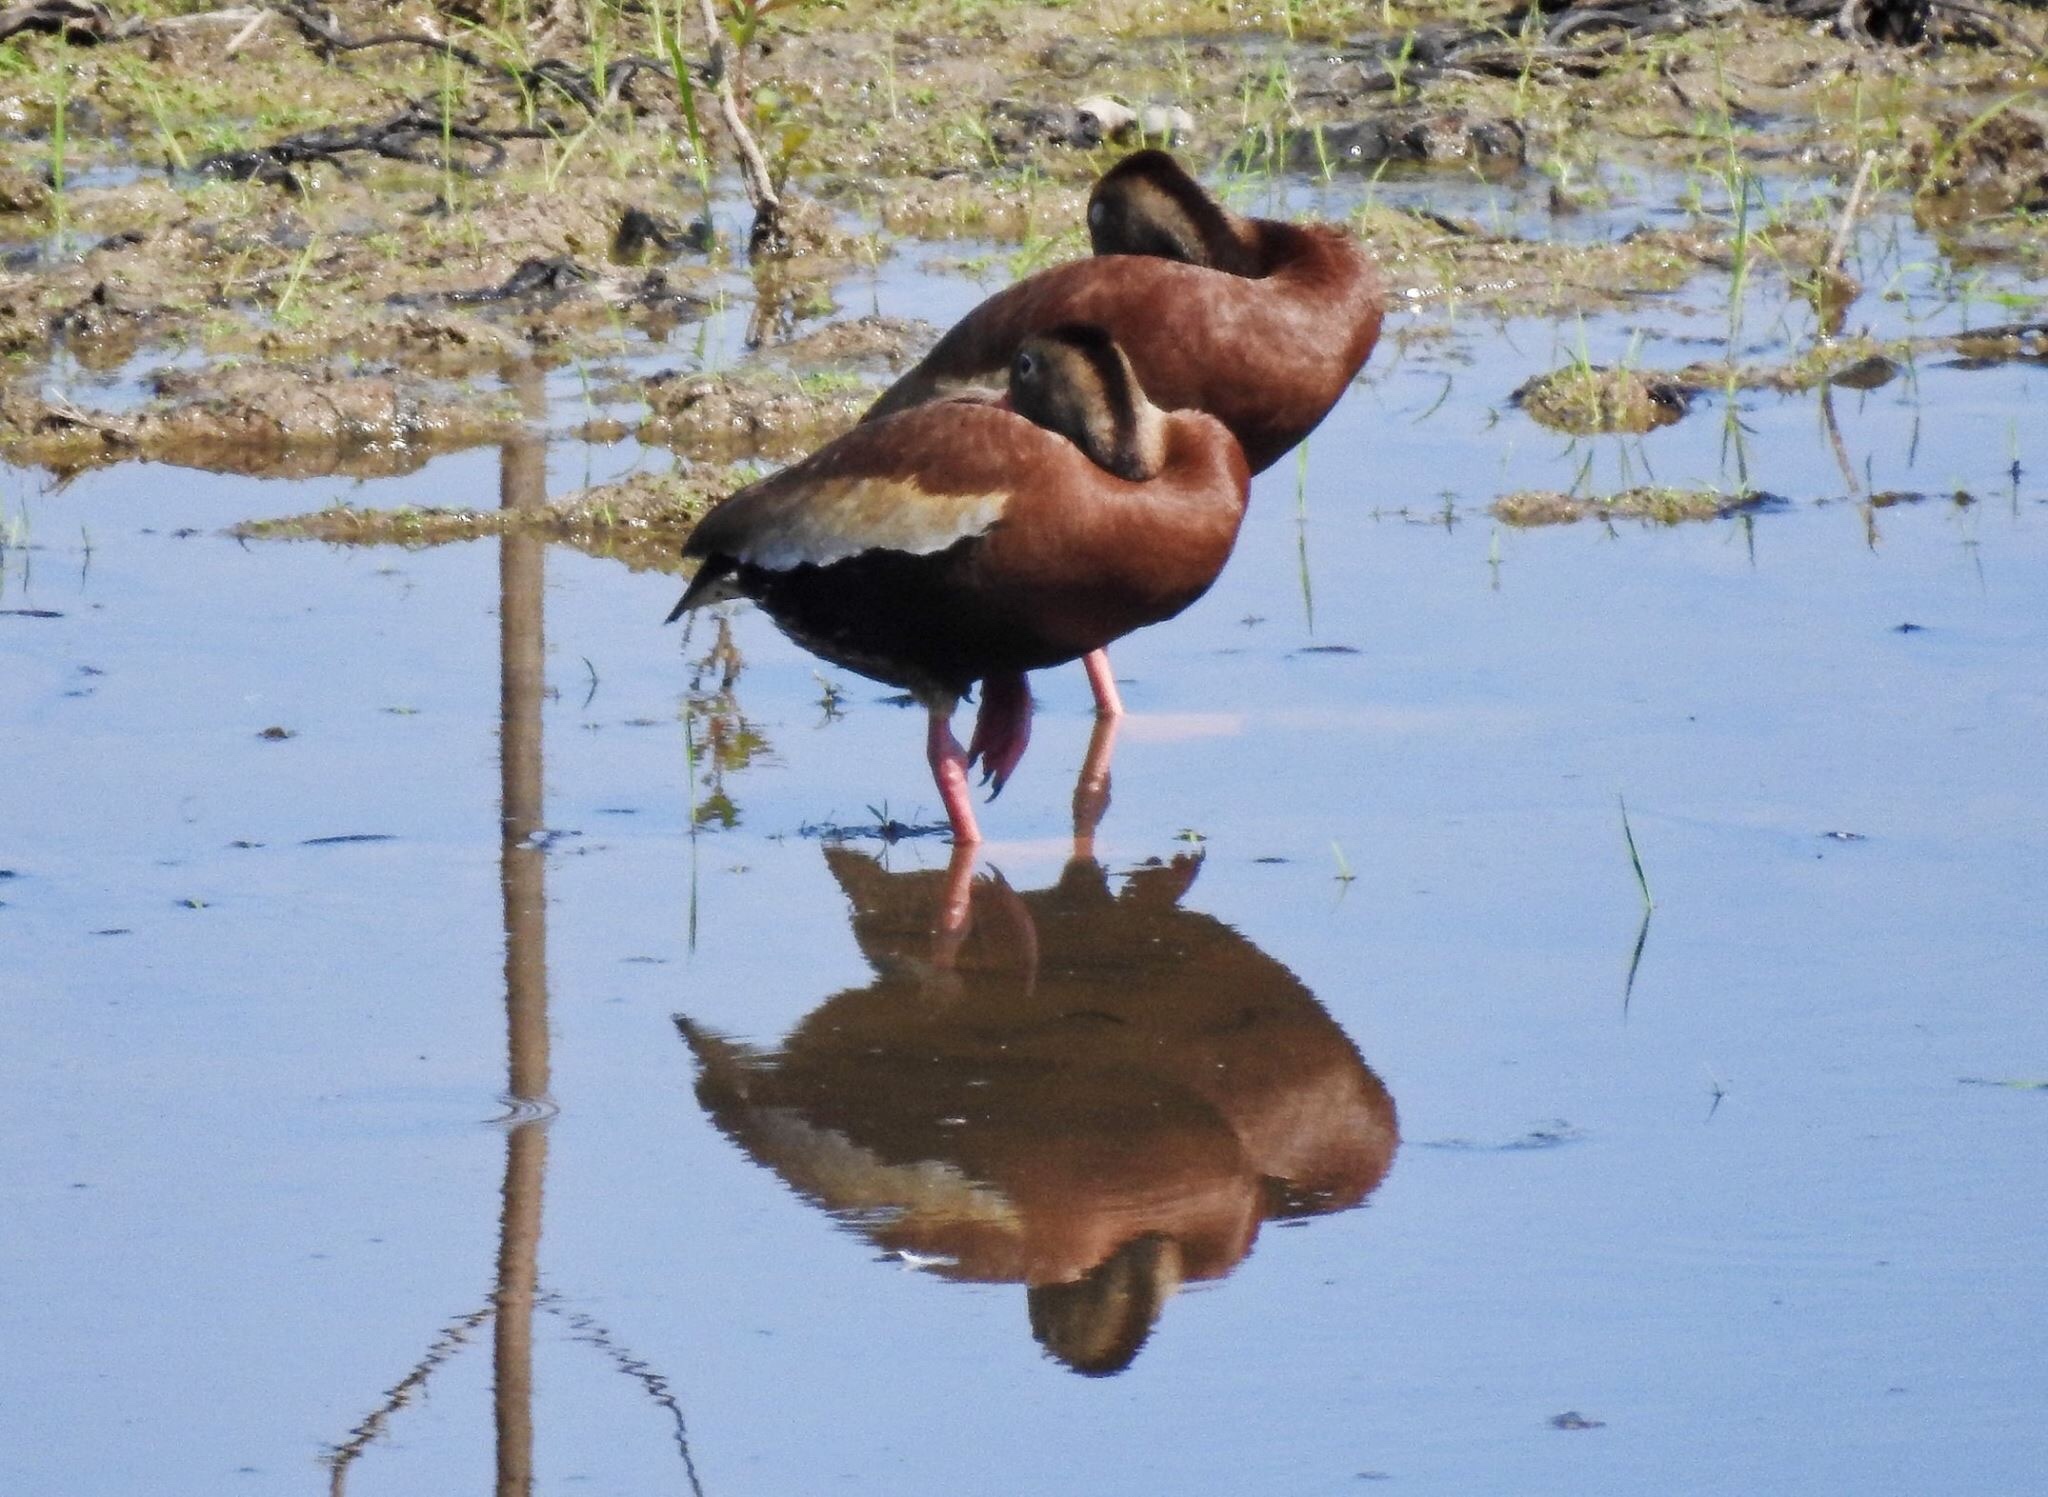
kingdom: Animalia
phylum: Chordata
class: Aves
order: Anseriformes
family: Anatidae
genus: Dendrocygna
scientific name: Dendrocygna autumnalis
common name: Black-bellied whistling duck
